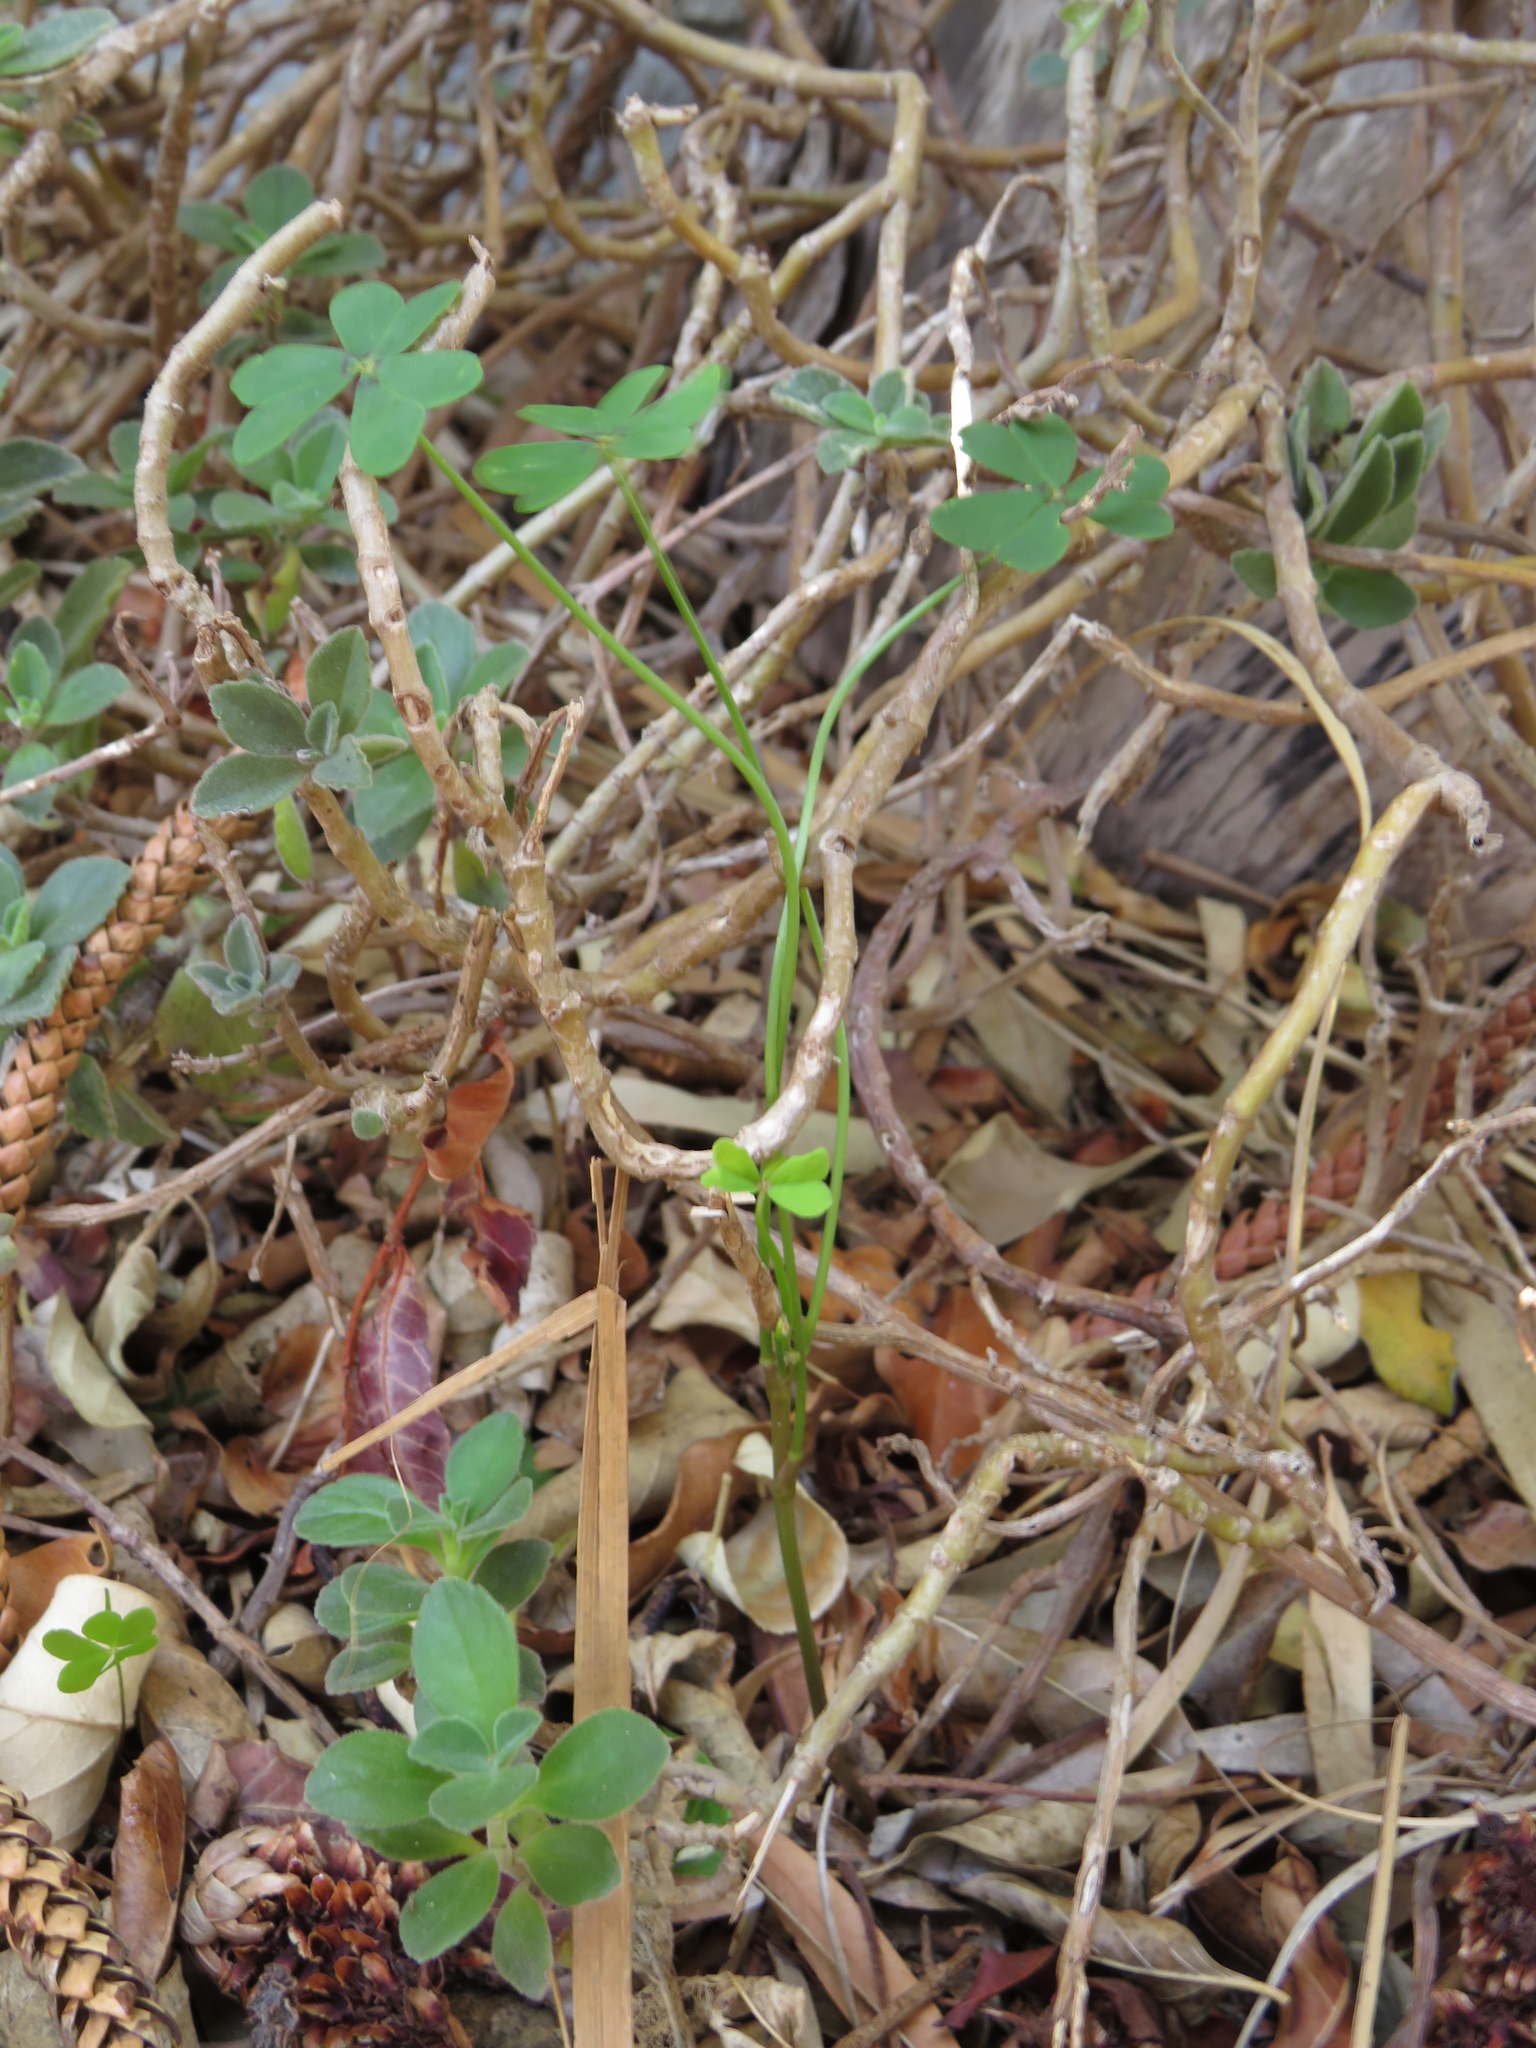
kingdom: Plantae
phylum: Tracheophyta
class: Magnoliopsida
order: Oxalidales
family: Oxalidaceae
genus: Oxalis
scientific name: Oxalis pes-caprae
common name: Bermuda-buttercup
